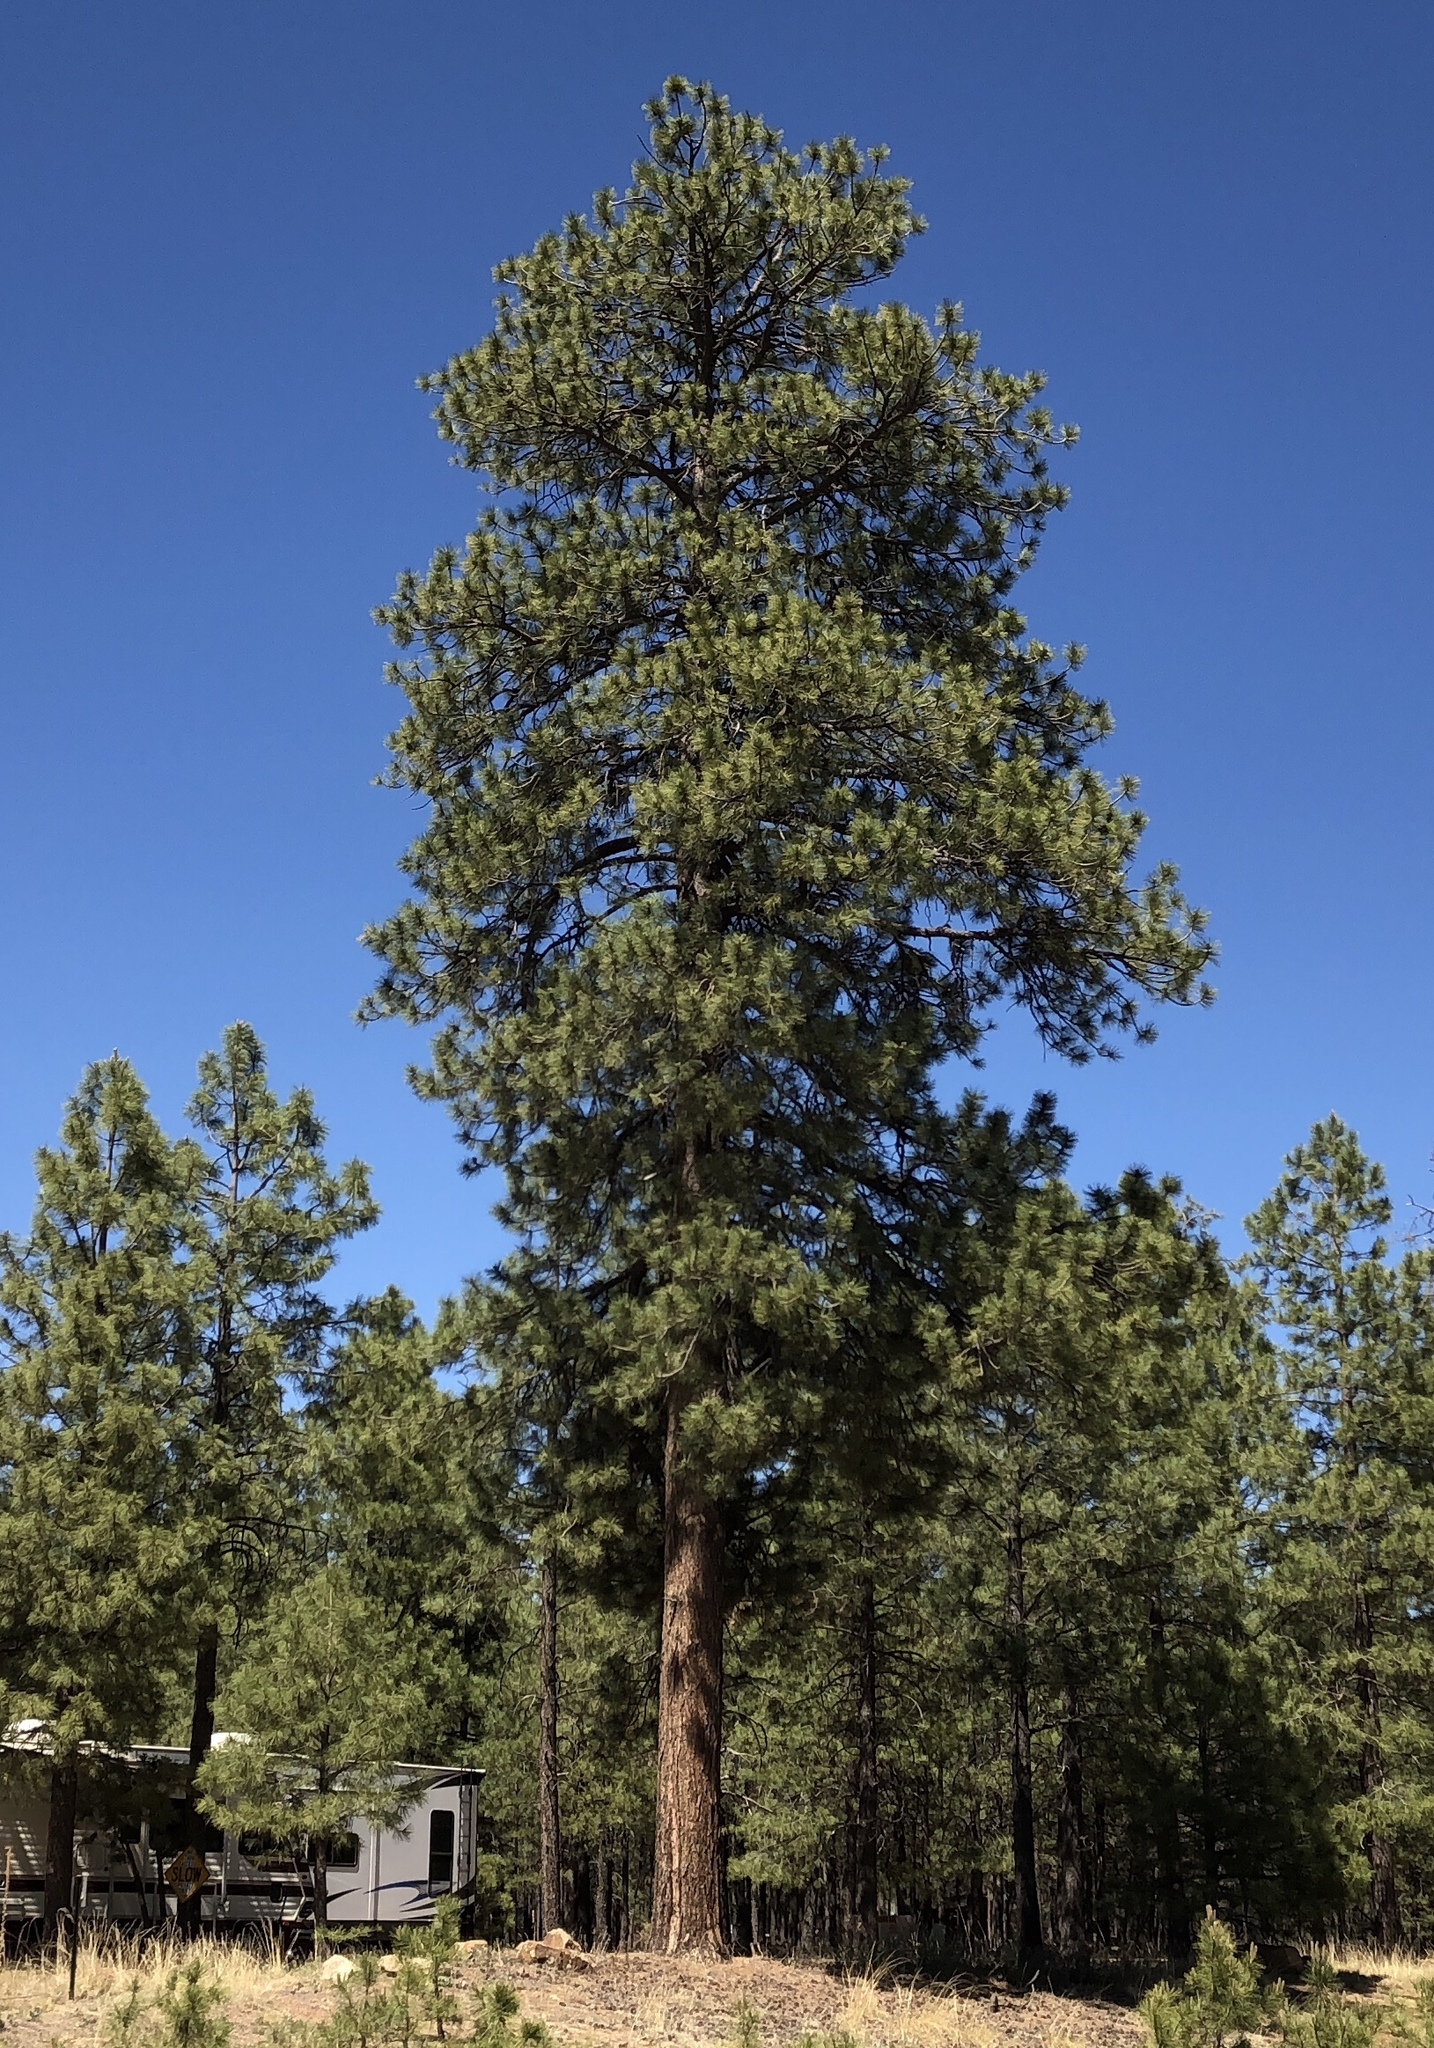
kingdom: Plantae
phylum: Tracheophyta
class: Pinopsida
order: Pinales
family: Pinaceae
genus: Pinus
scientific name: Pinus ponderosa
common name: Western yellow-pine
